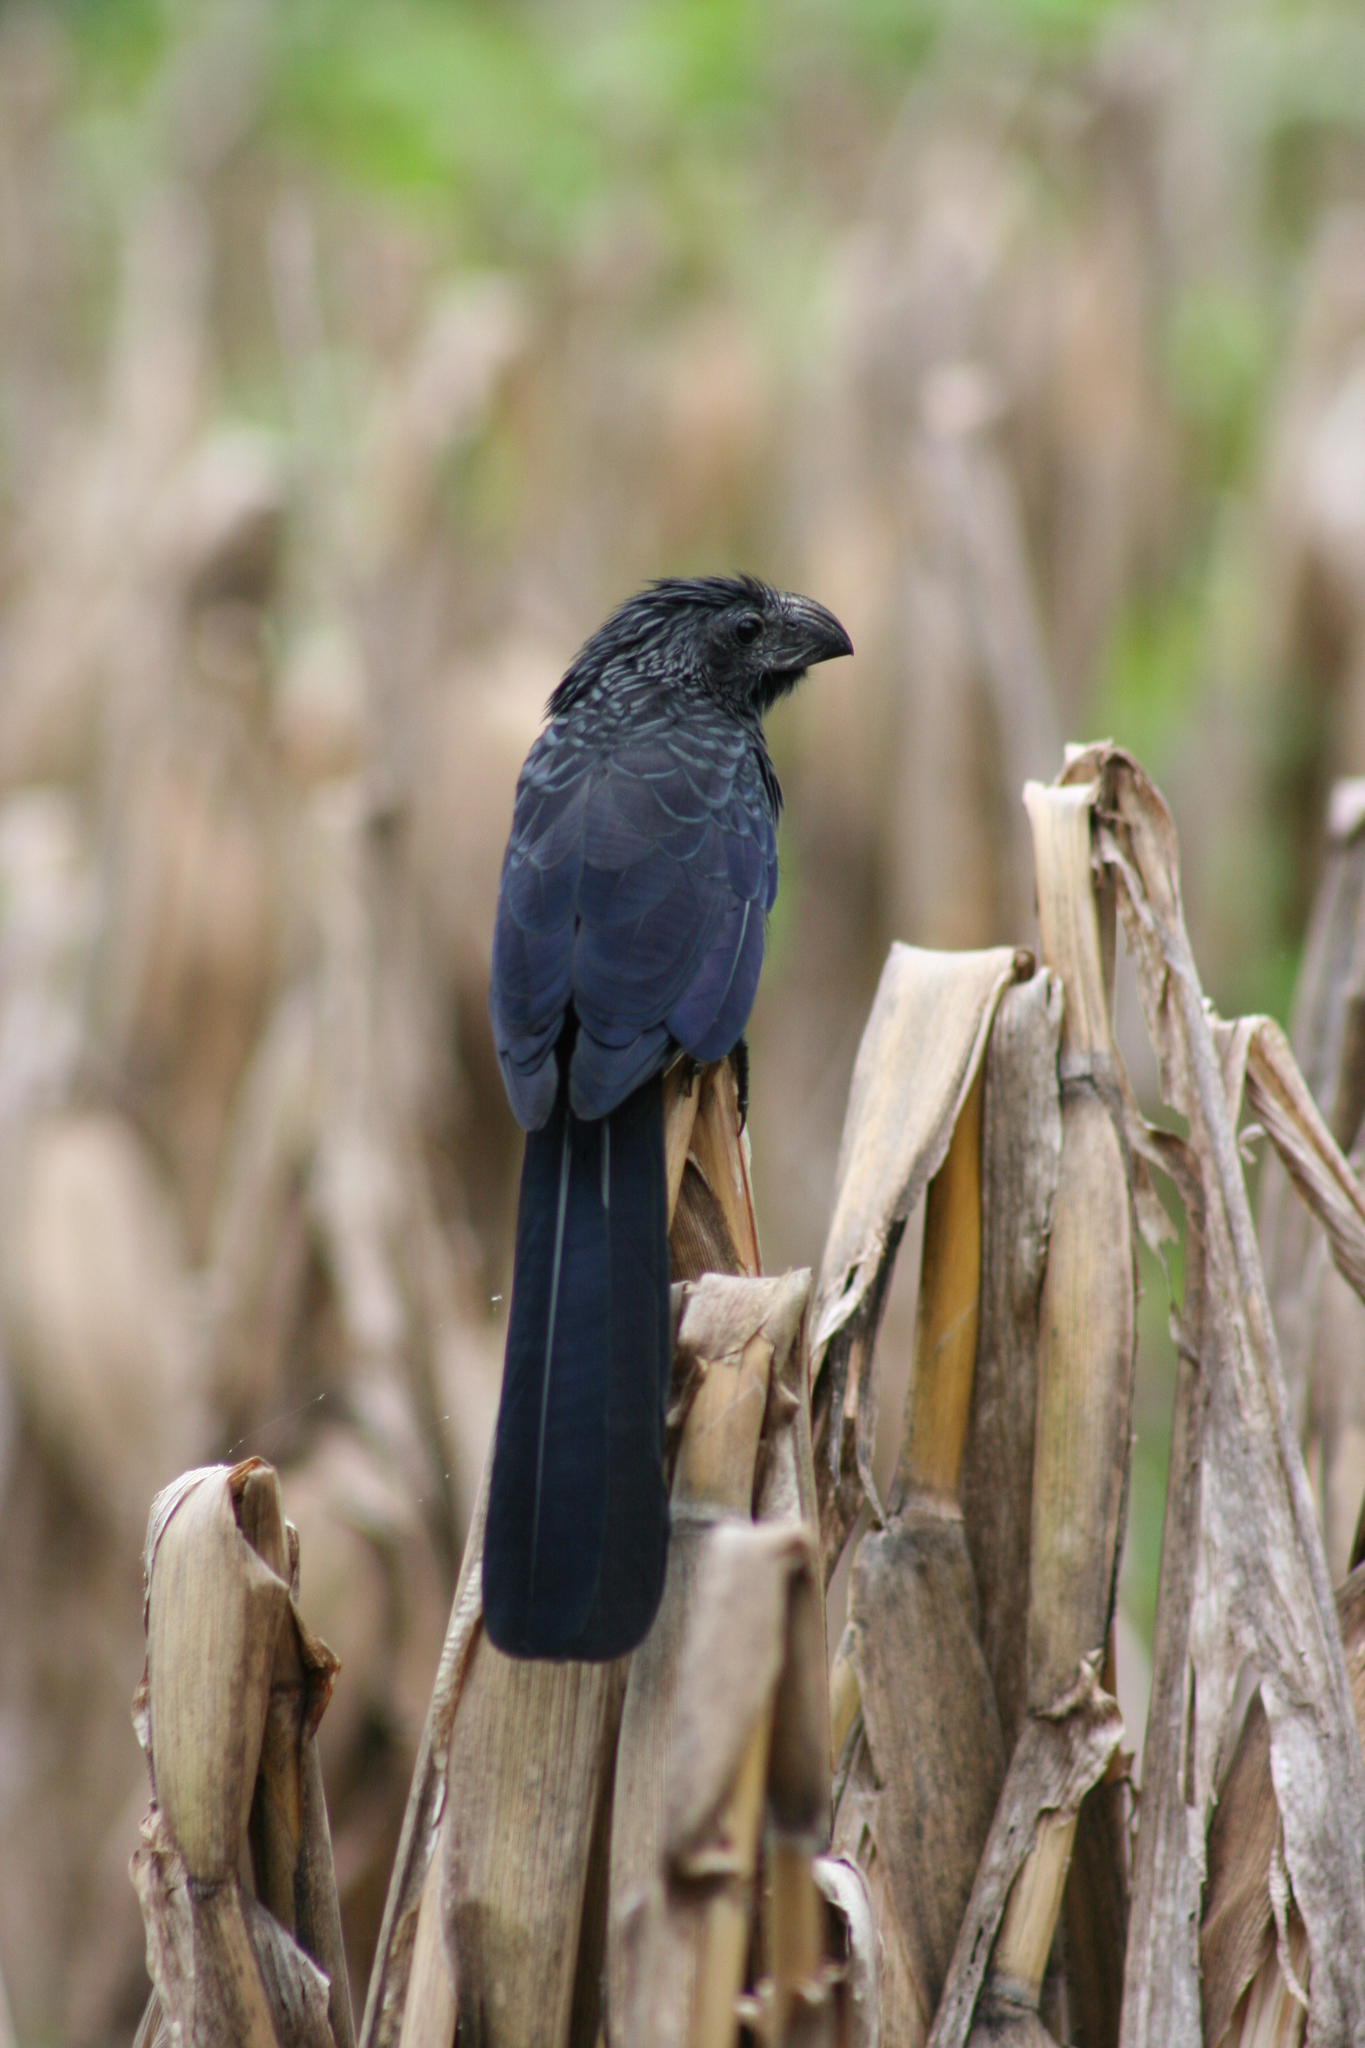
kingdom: Animalia
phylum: Chordata
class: Aves
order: Cuculiformes
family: Cuculidae
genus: Crotophaga
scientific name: Crotophaga sulcirostris
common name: Groove-billed ani
